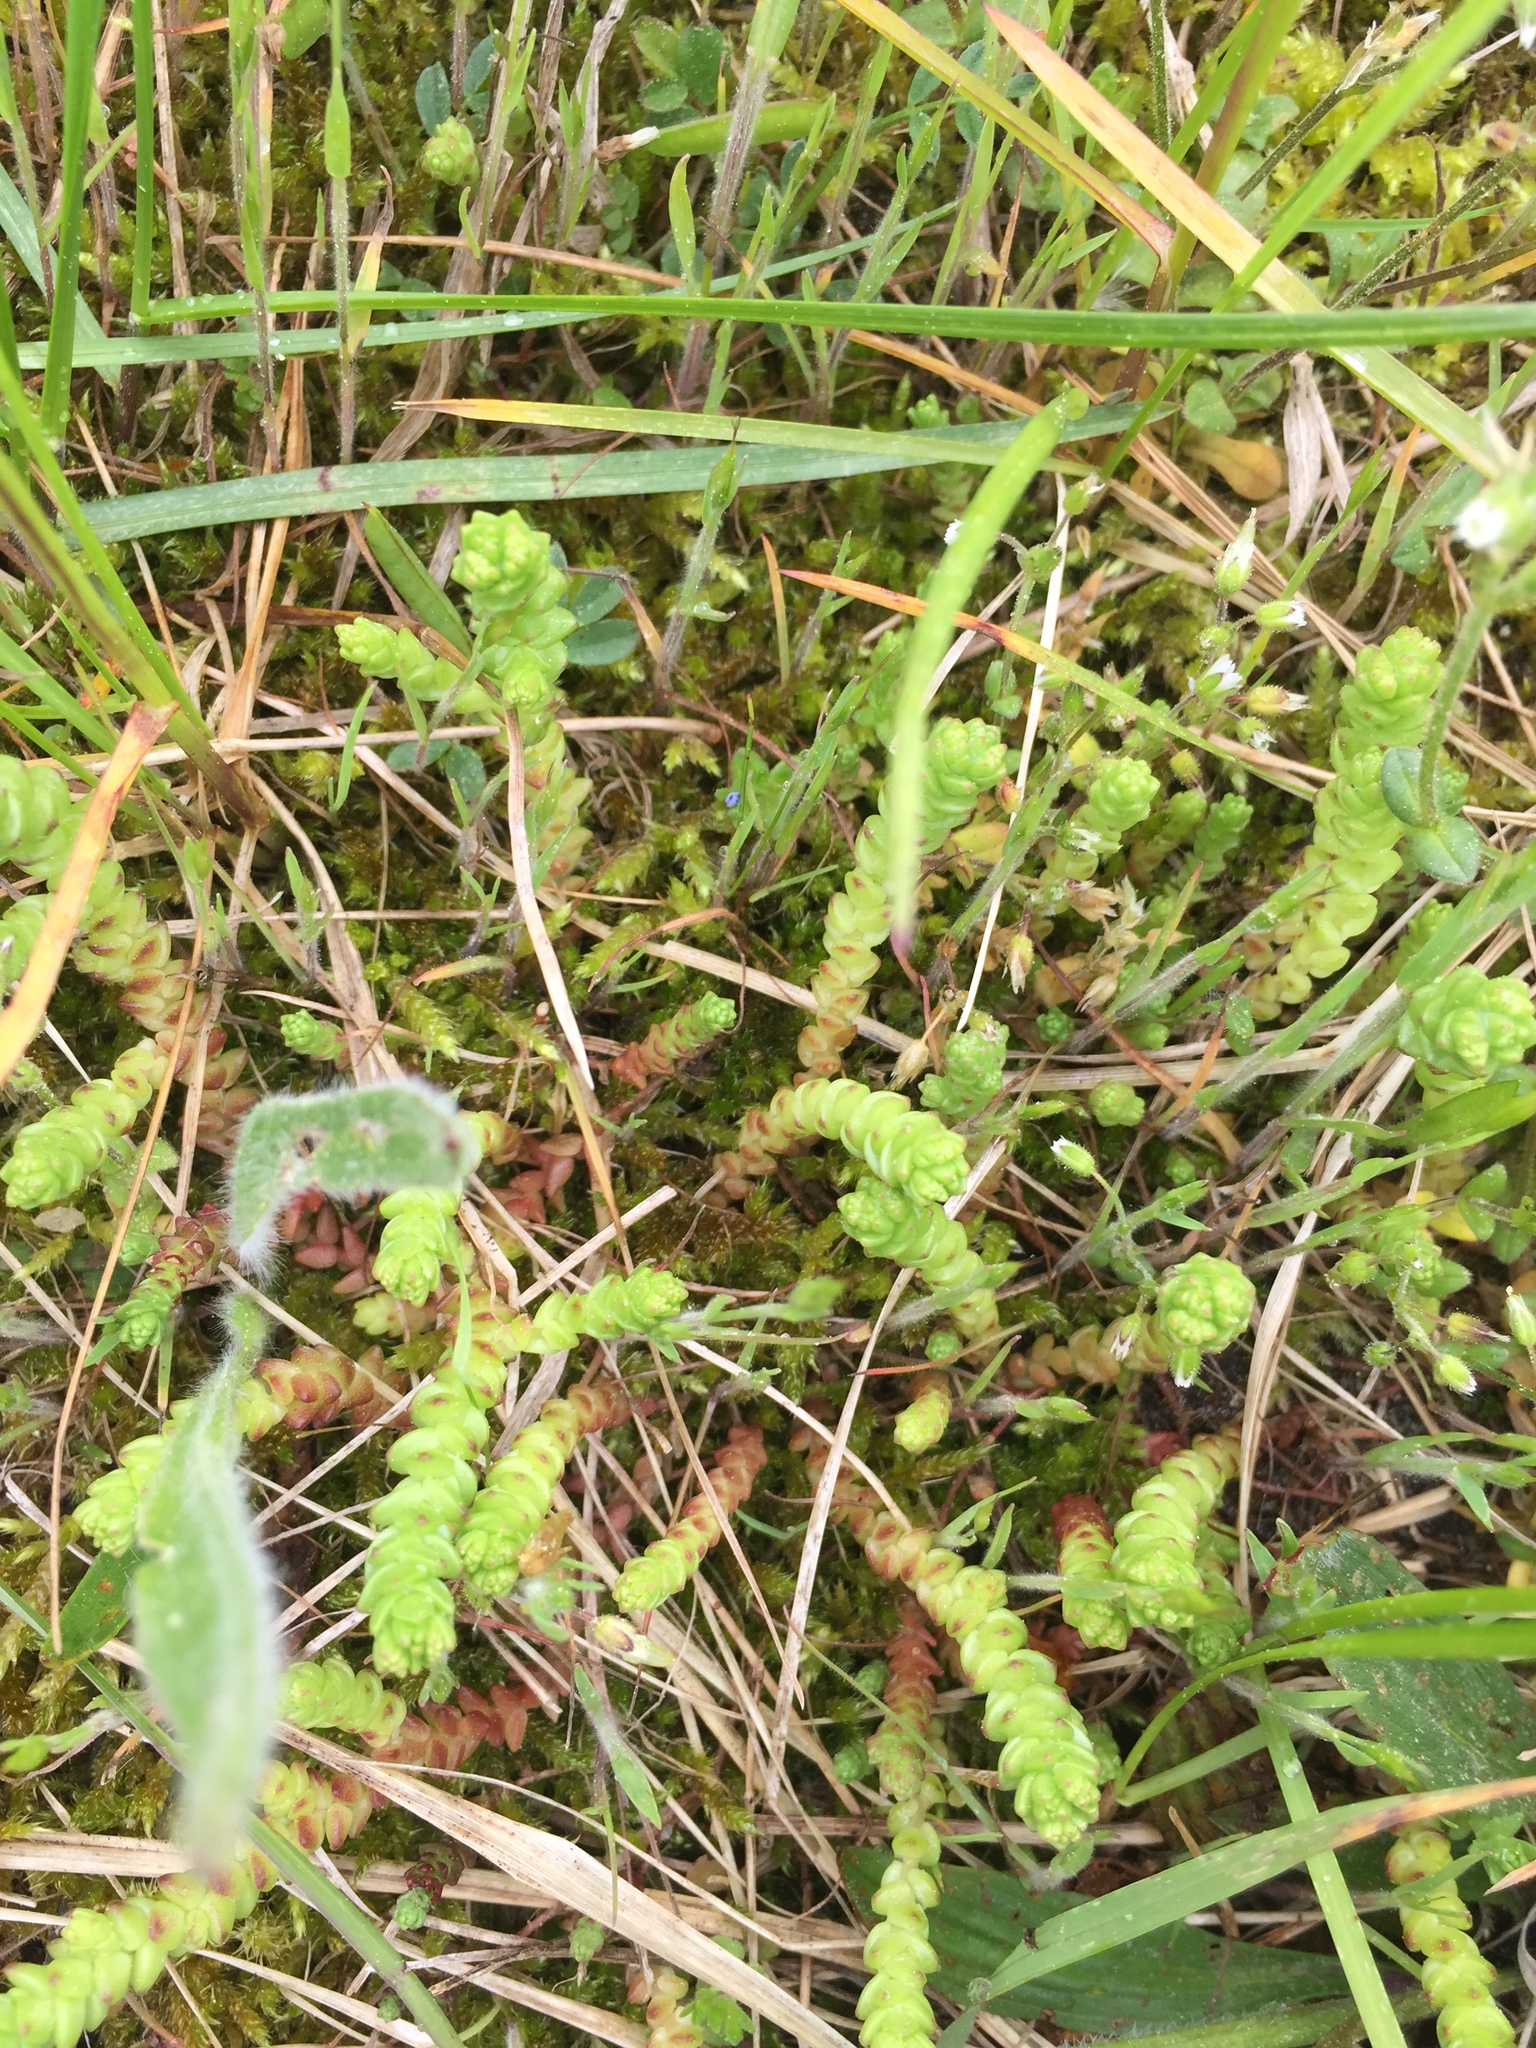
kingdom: Plantae
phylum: Tracheophyta
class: Magnoliopsida
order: Saxifragales
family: Crassulaceae
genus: Sedum
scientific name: Sedum acre
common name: Biting stonecrop
